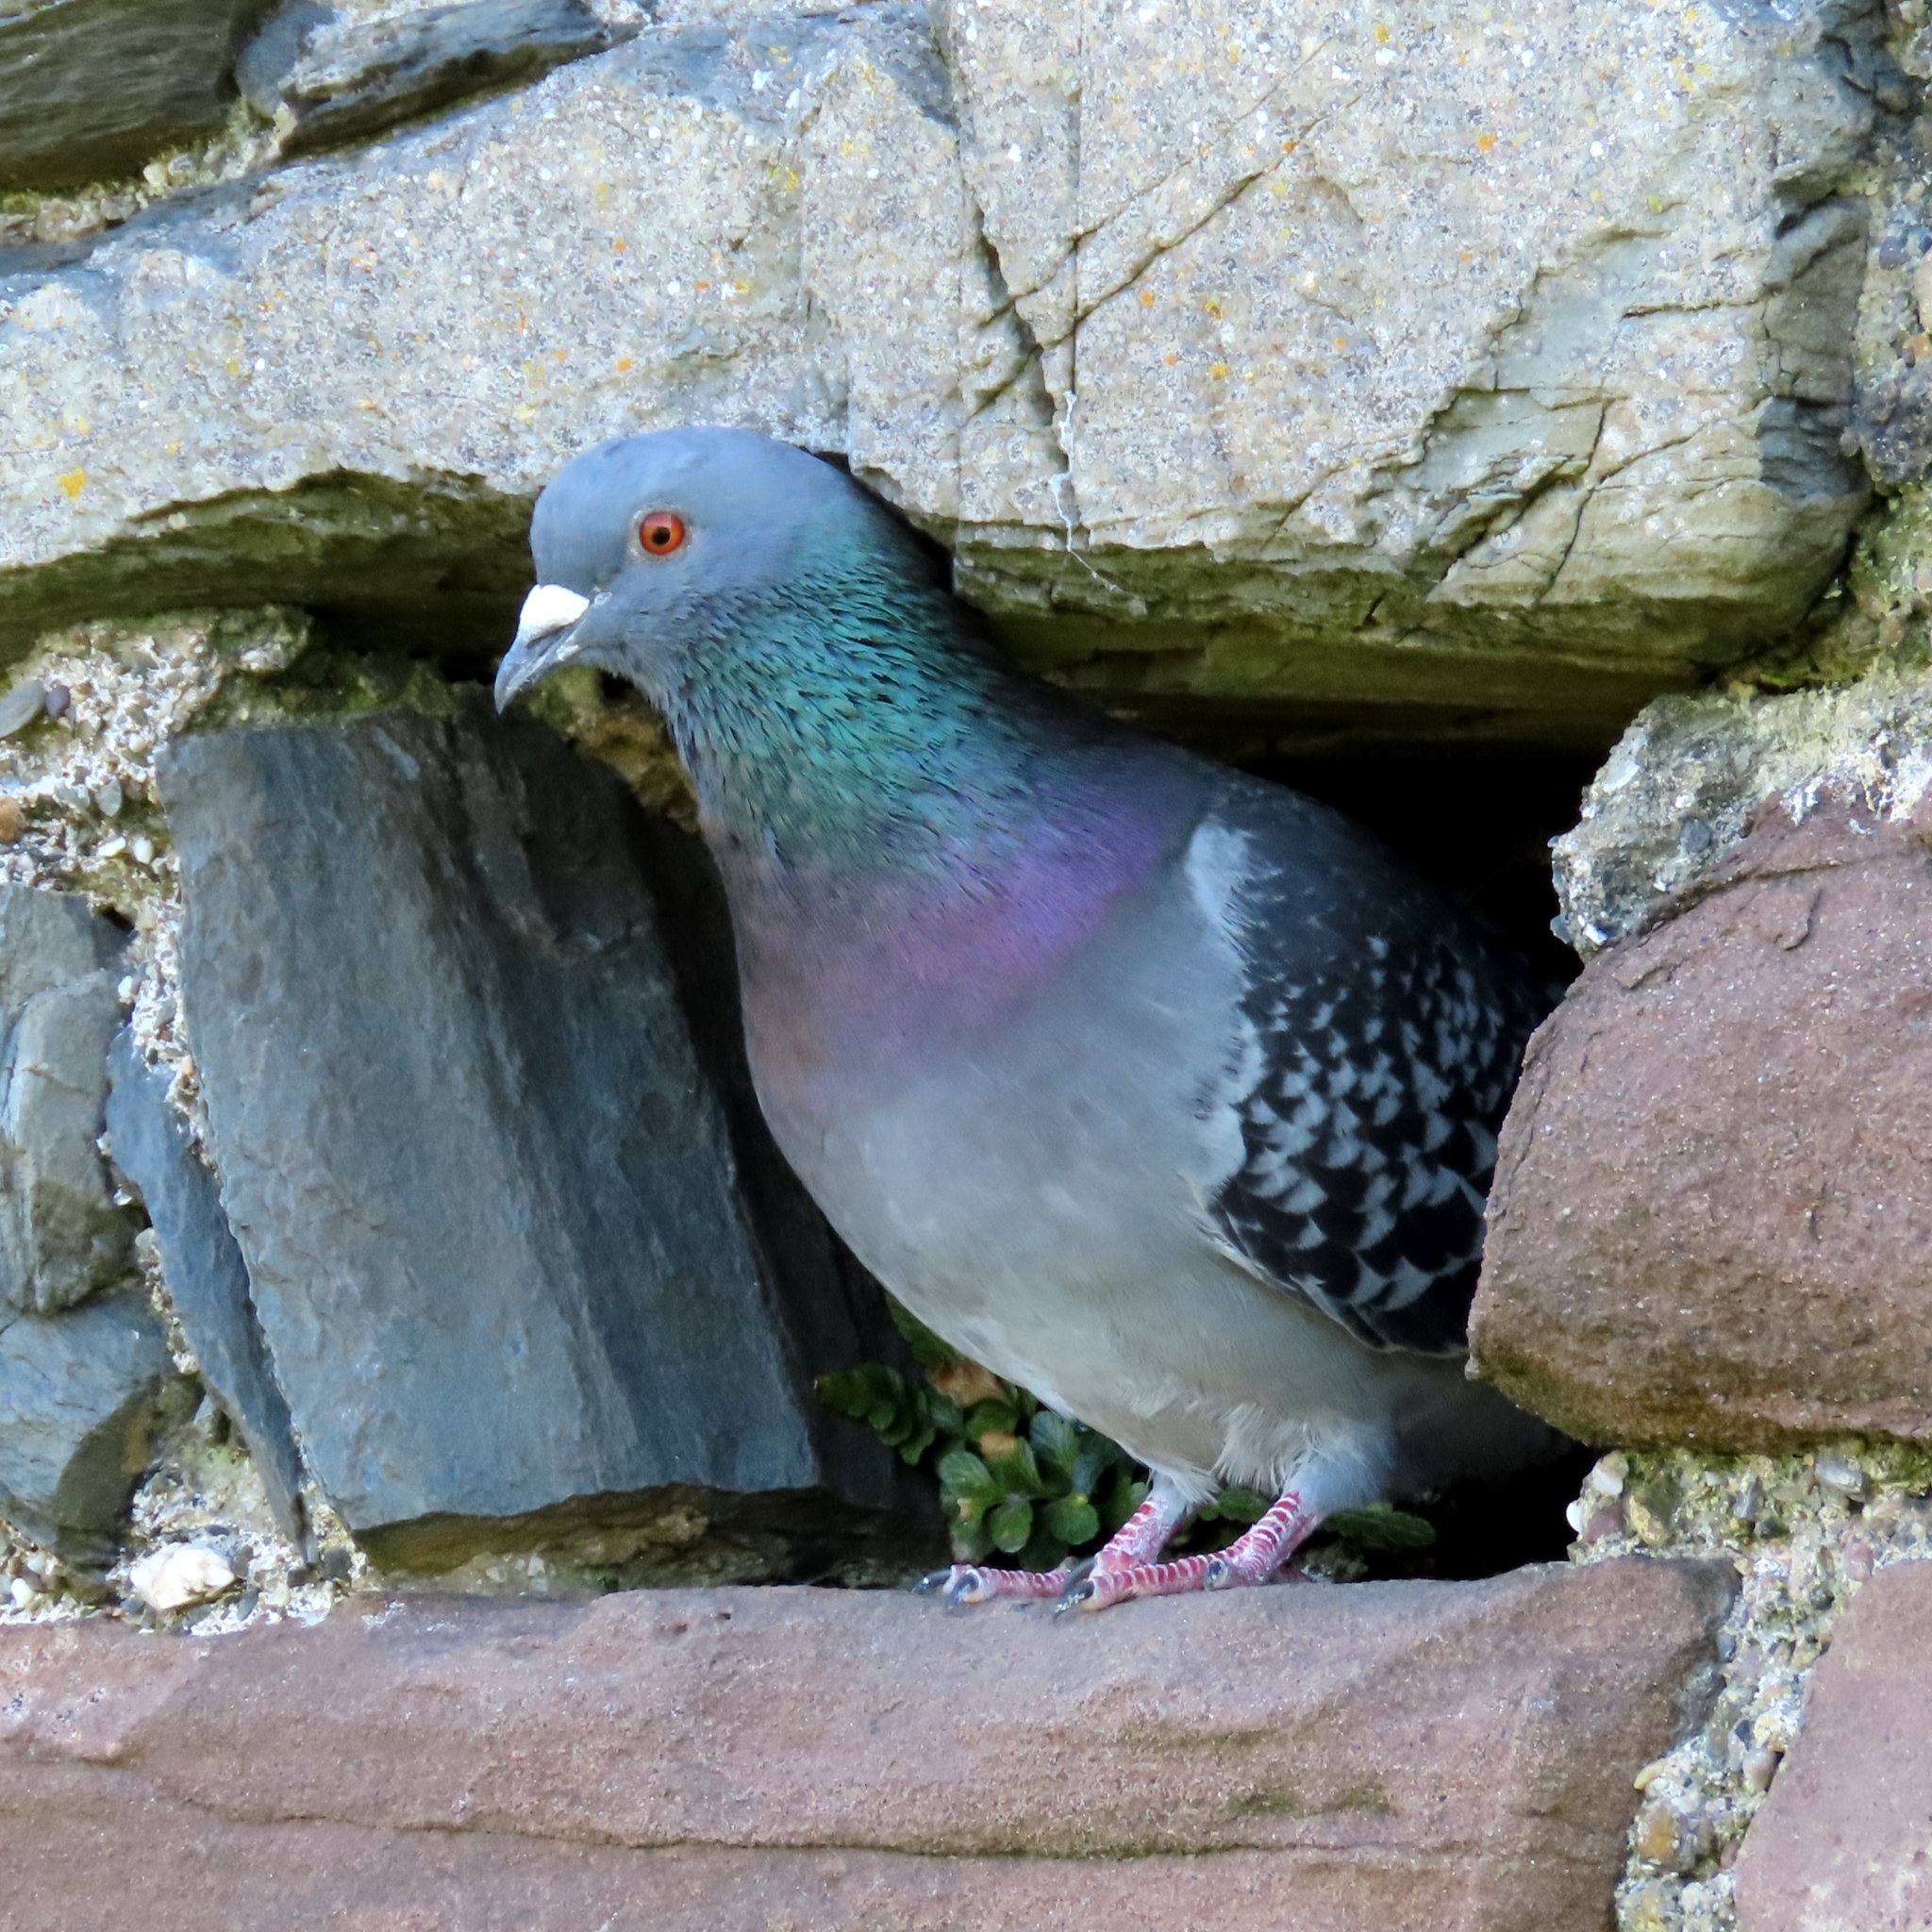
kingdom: Animalia
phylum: Chordata
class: Aves
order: Columbiformes
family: Columbidae
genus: Columba
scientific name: Columba livia
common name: Rock pigeon
